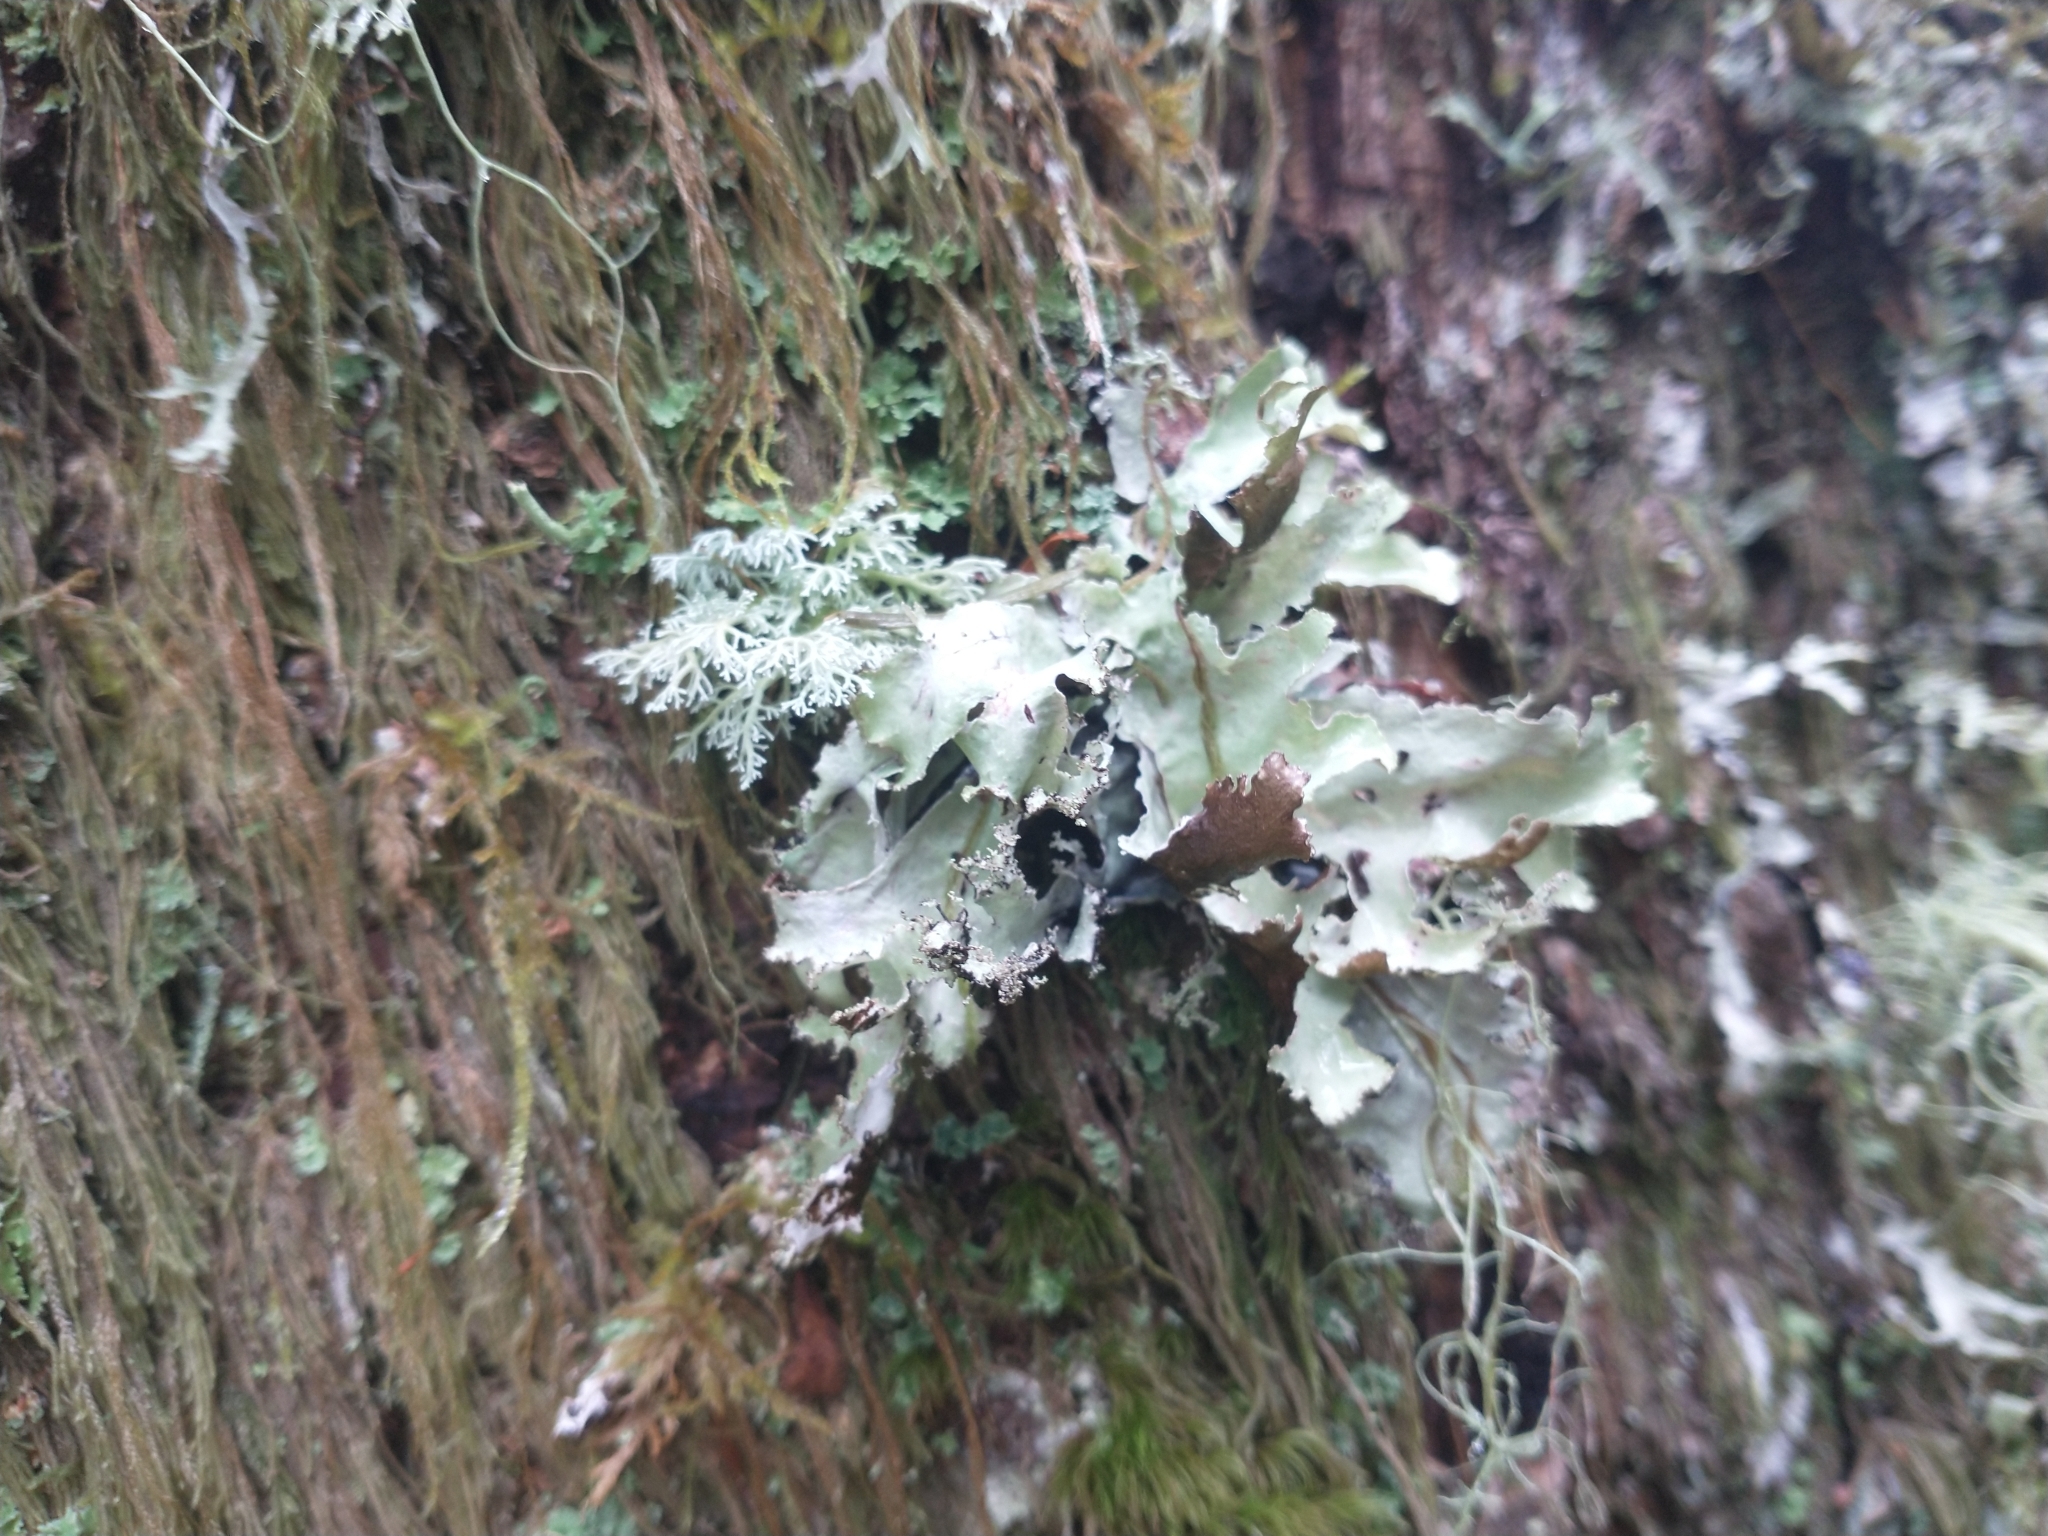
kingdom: Fungi
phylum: Ascomycota
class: Lecanoromycetes
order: Lecanorales
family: Parmeliaceae
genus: Platismatia
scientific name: Platismatia glauca
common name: Varied rag lichen
